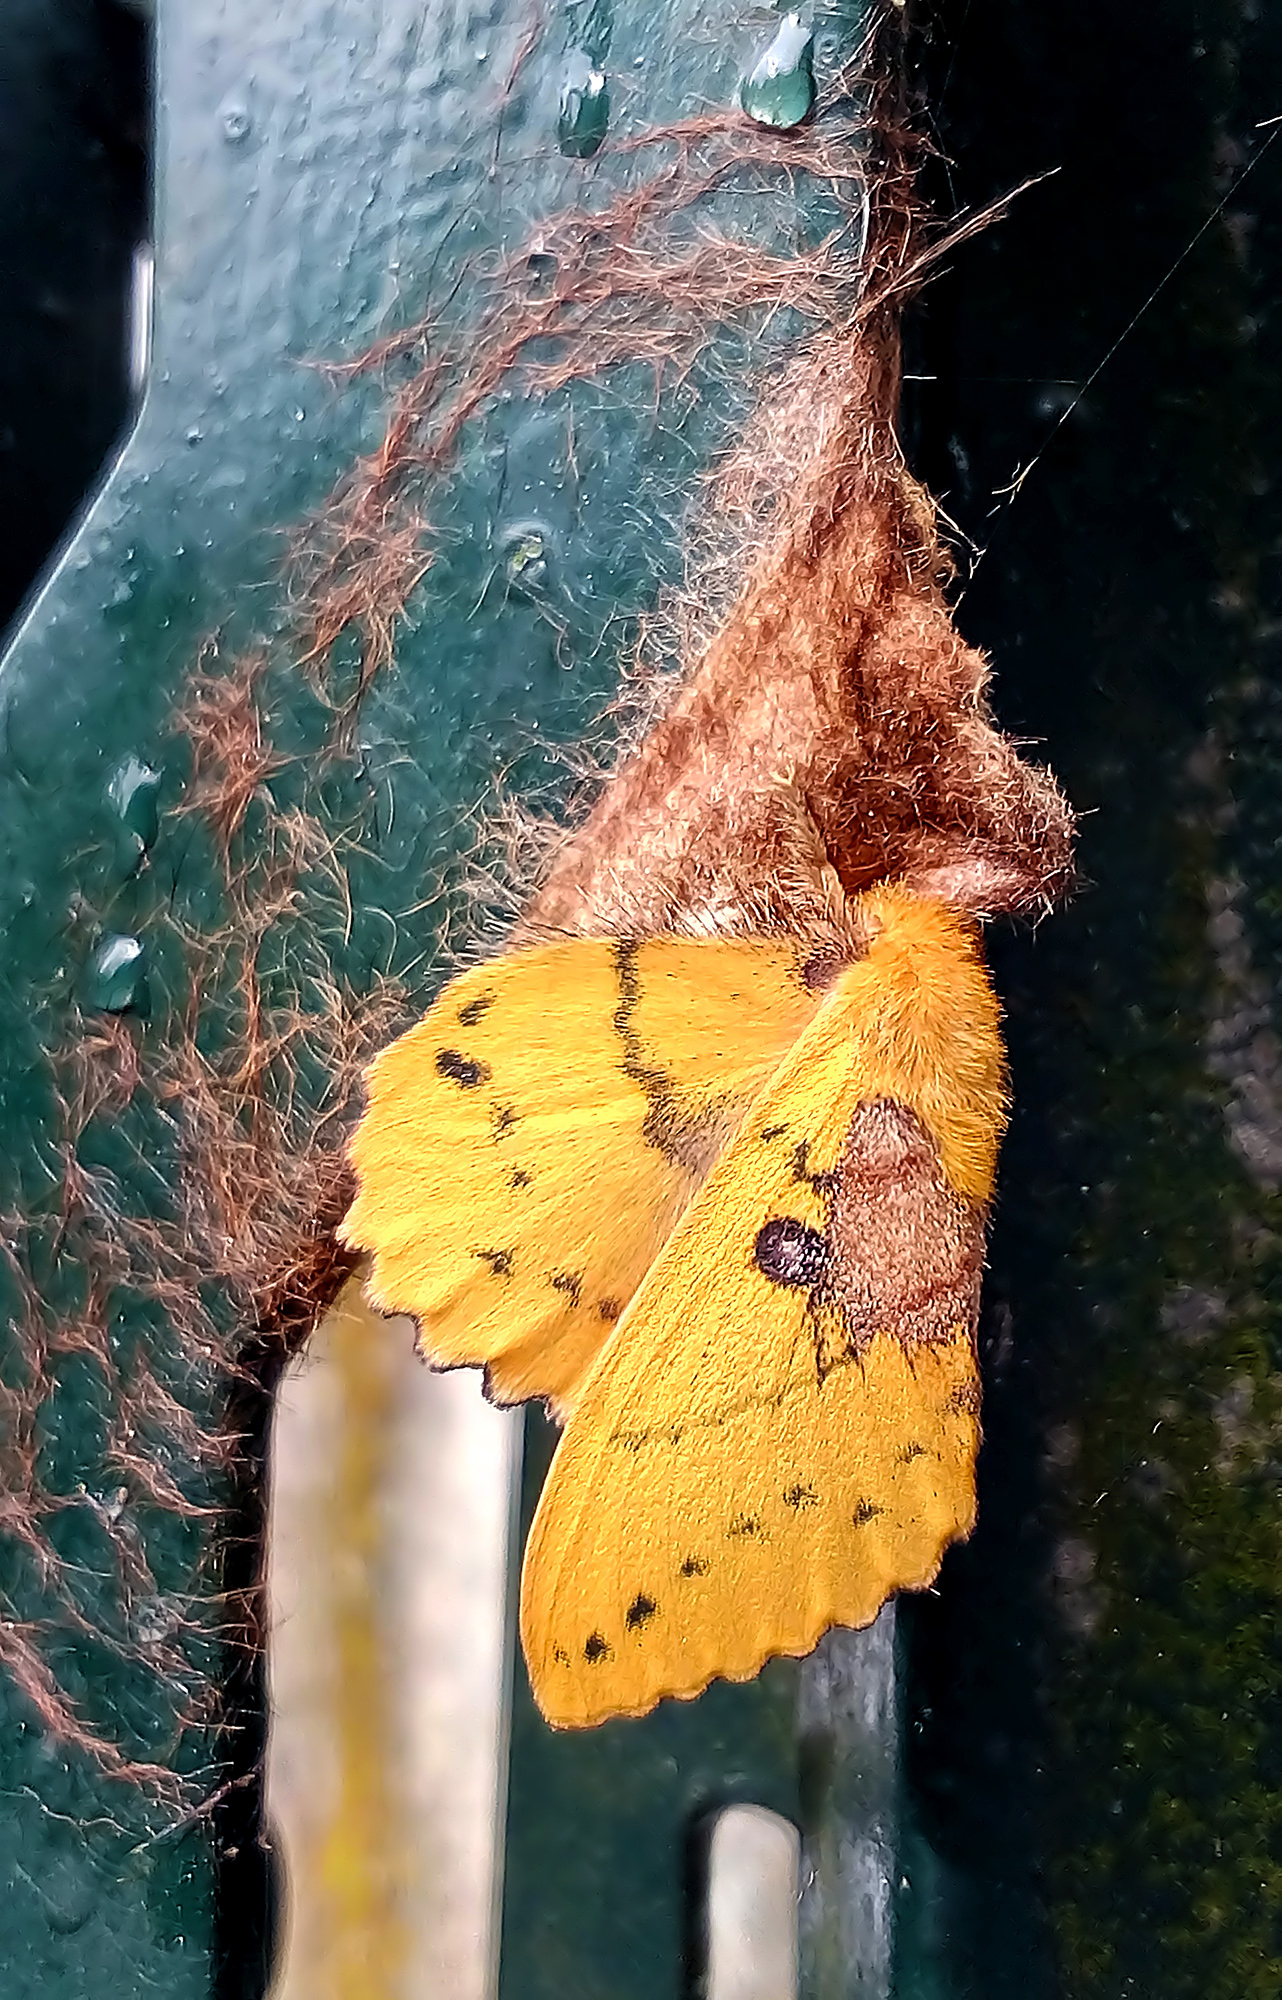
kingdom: Animalia
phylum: Arthropoda
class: Insecta
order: Lepidoptera
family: Lasiocampidae
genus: Trabala
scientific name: Trabala vishnou
